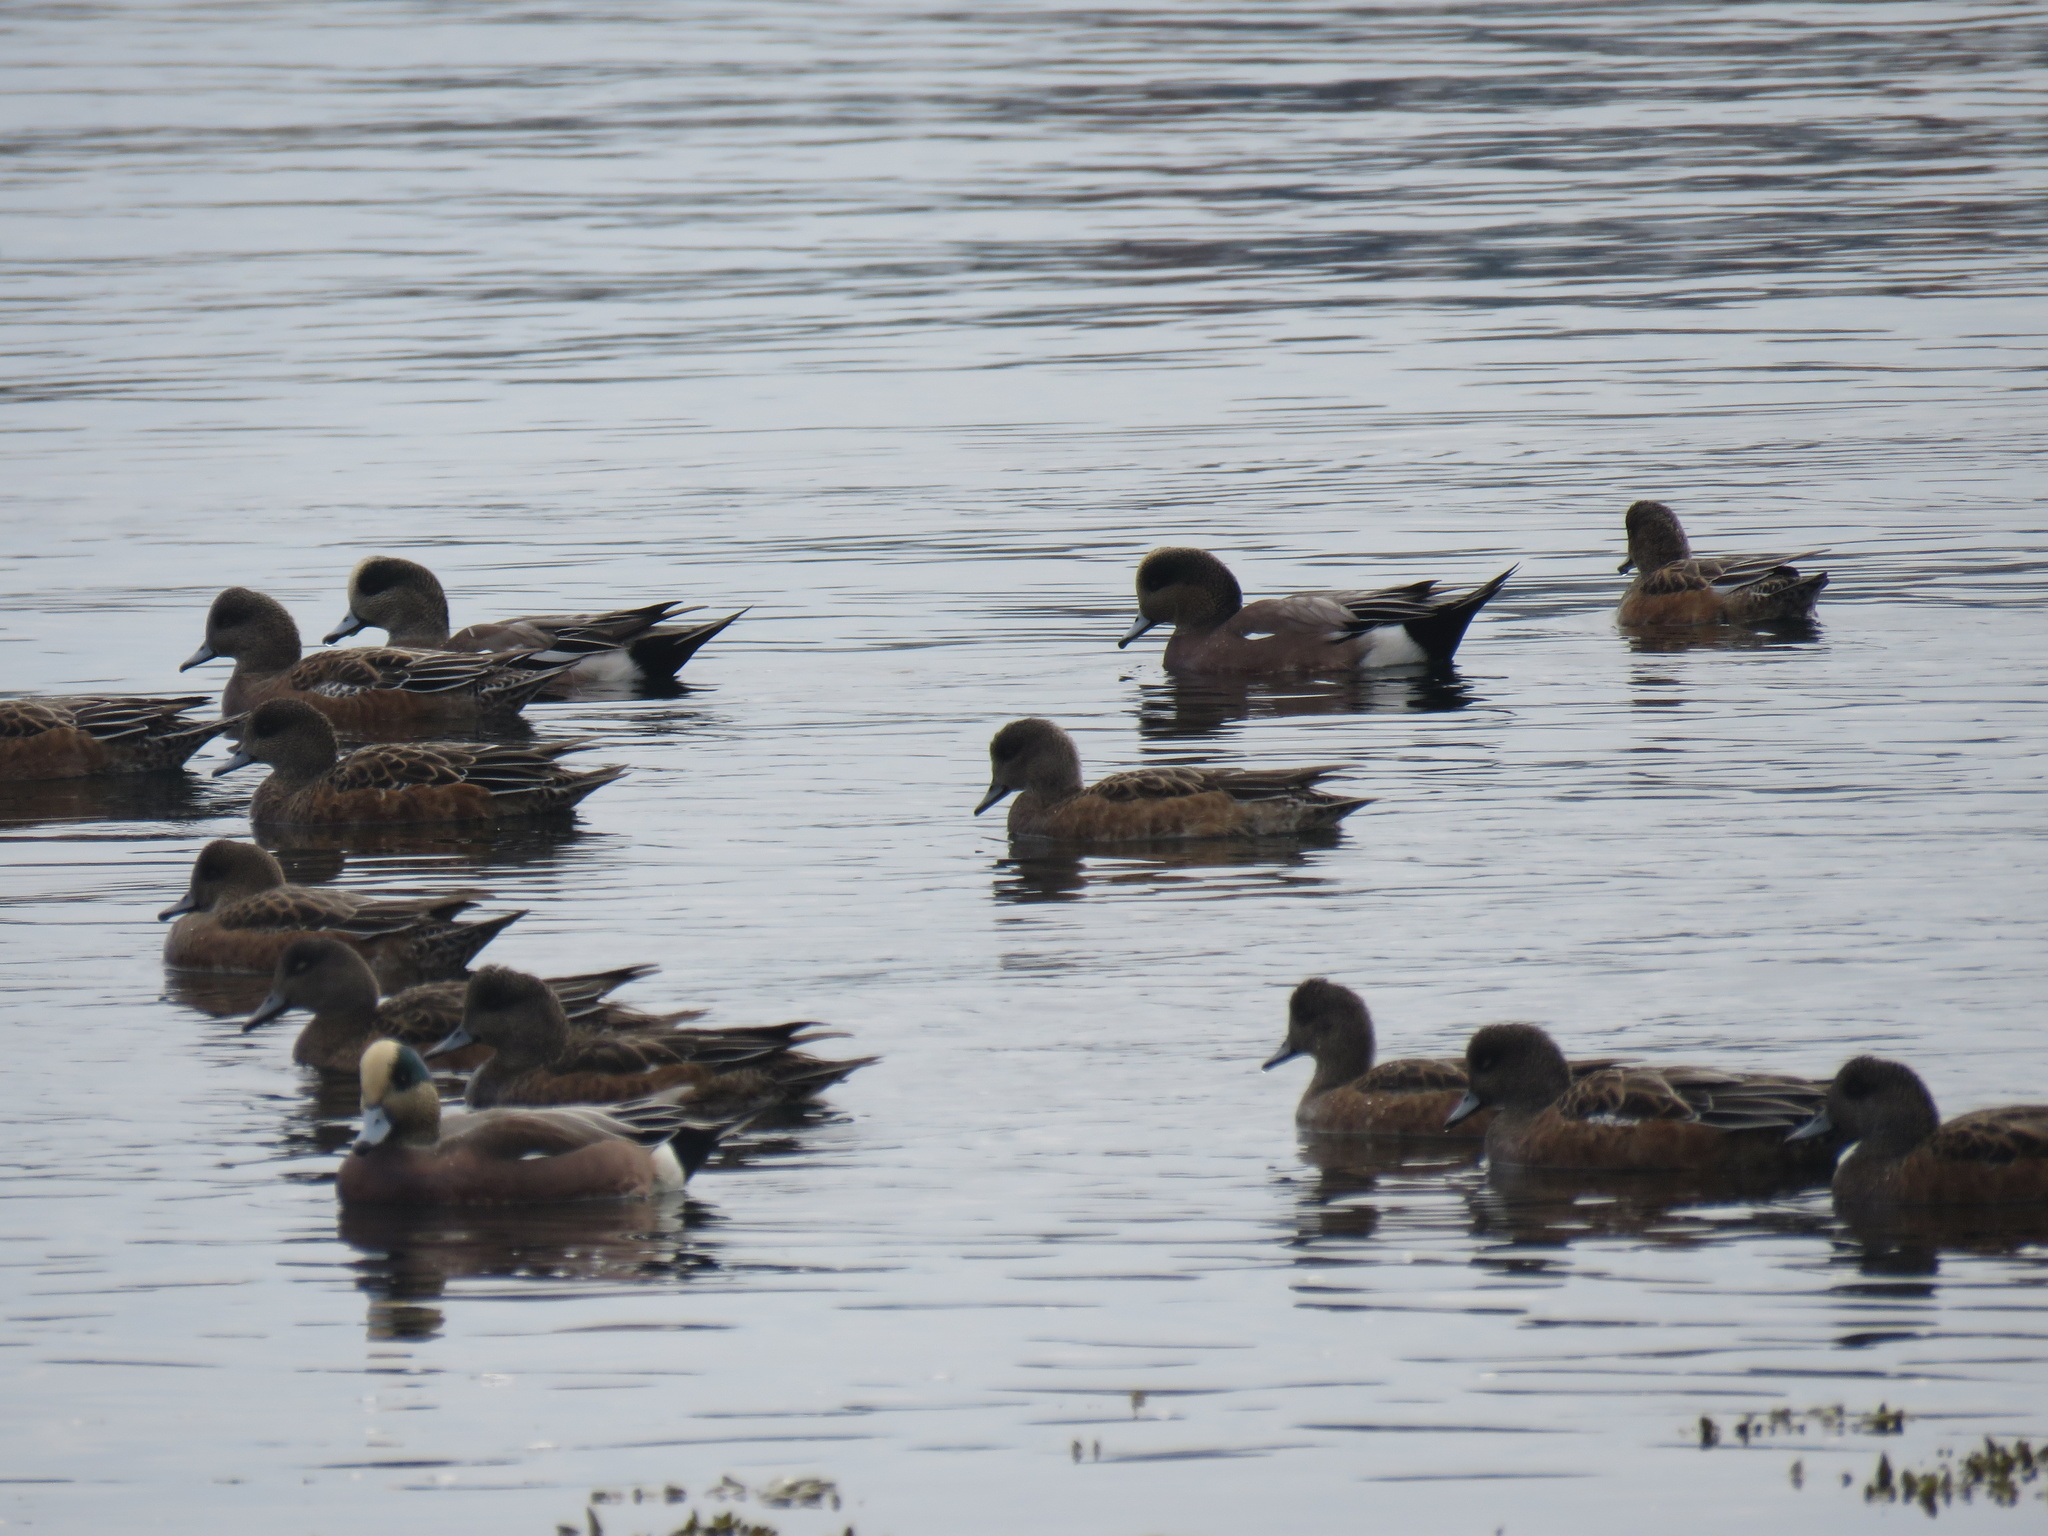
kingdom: Animalia
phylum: Chordata
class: Aves
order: Anseriformes
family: Anatidae
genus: Mareca
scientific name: Mareca americana
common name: American wigeon
